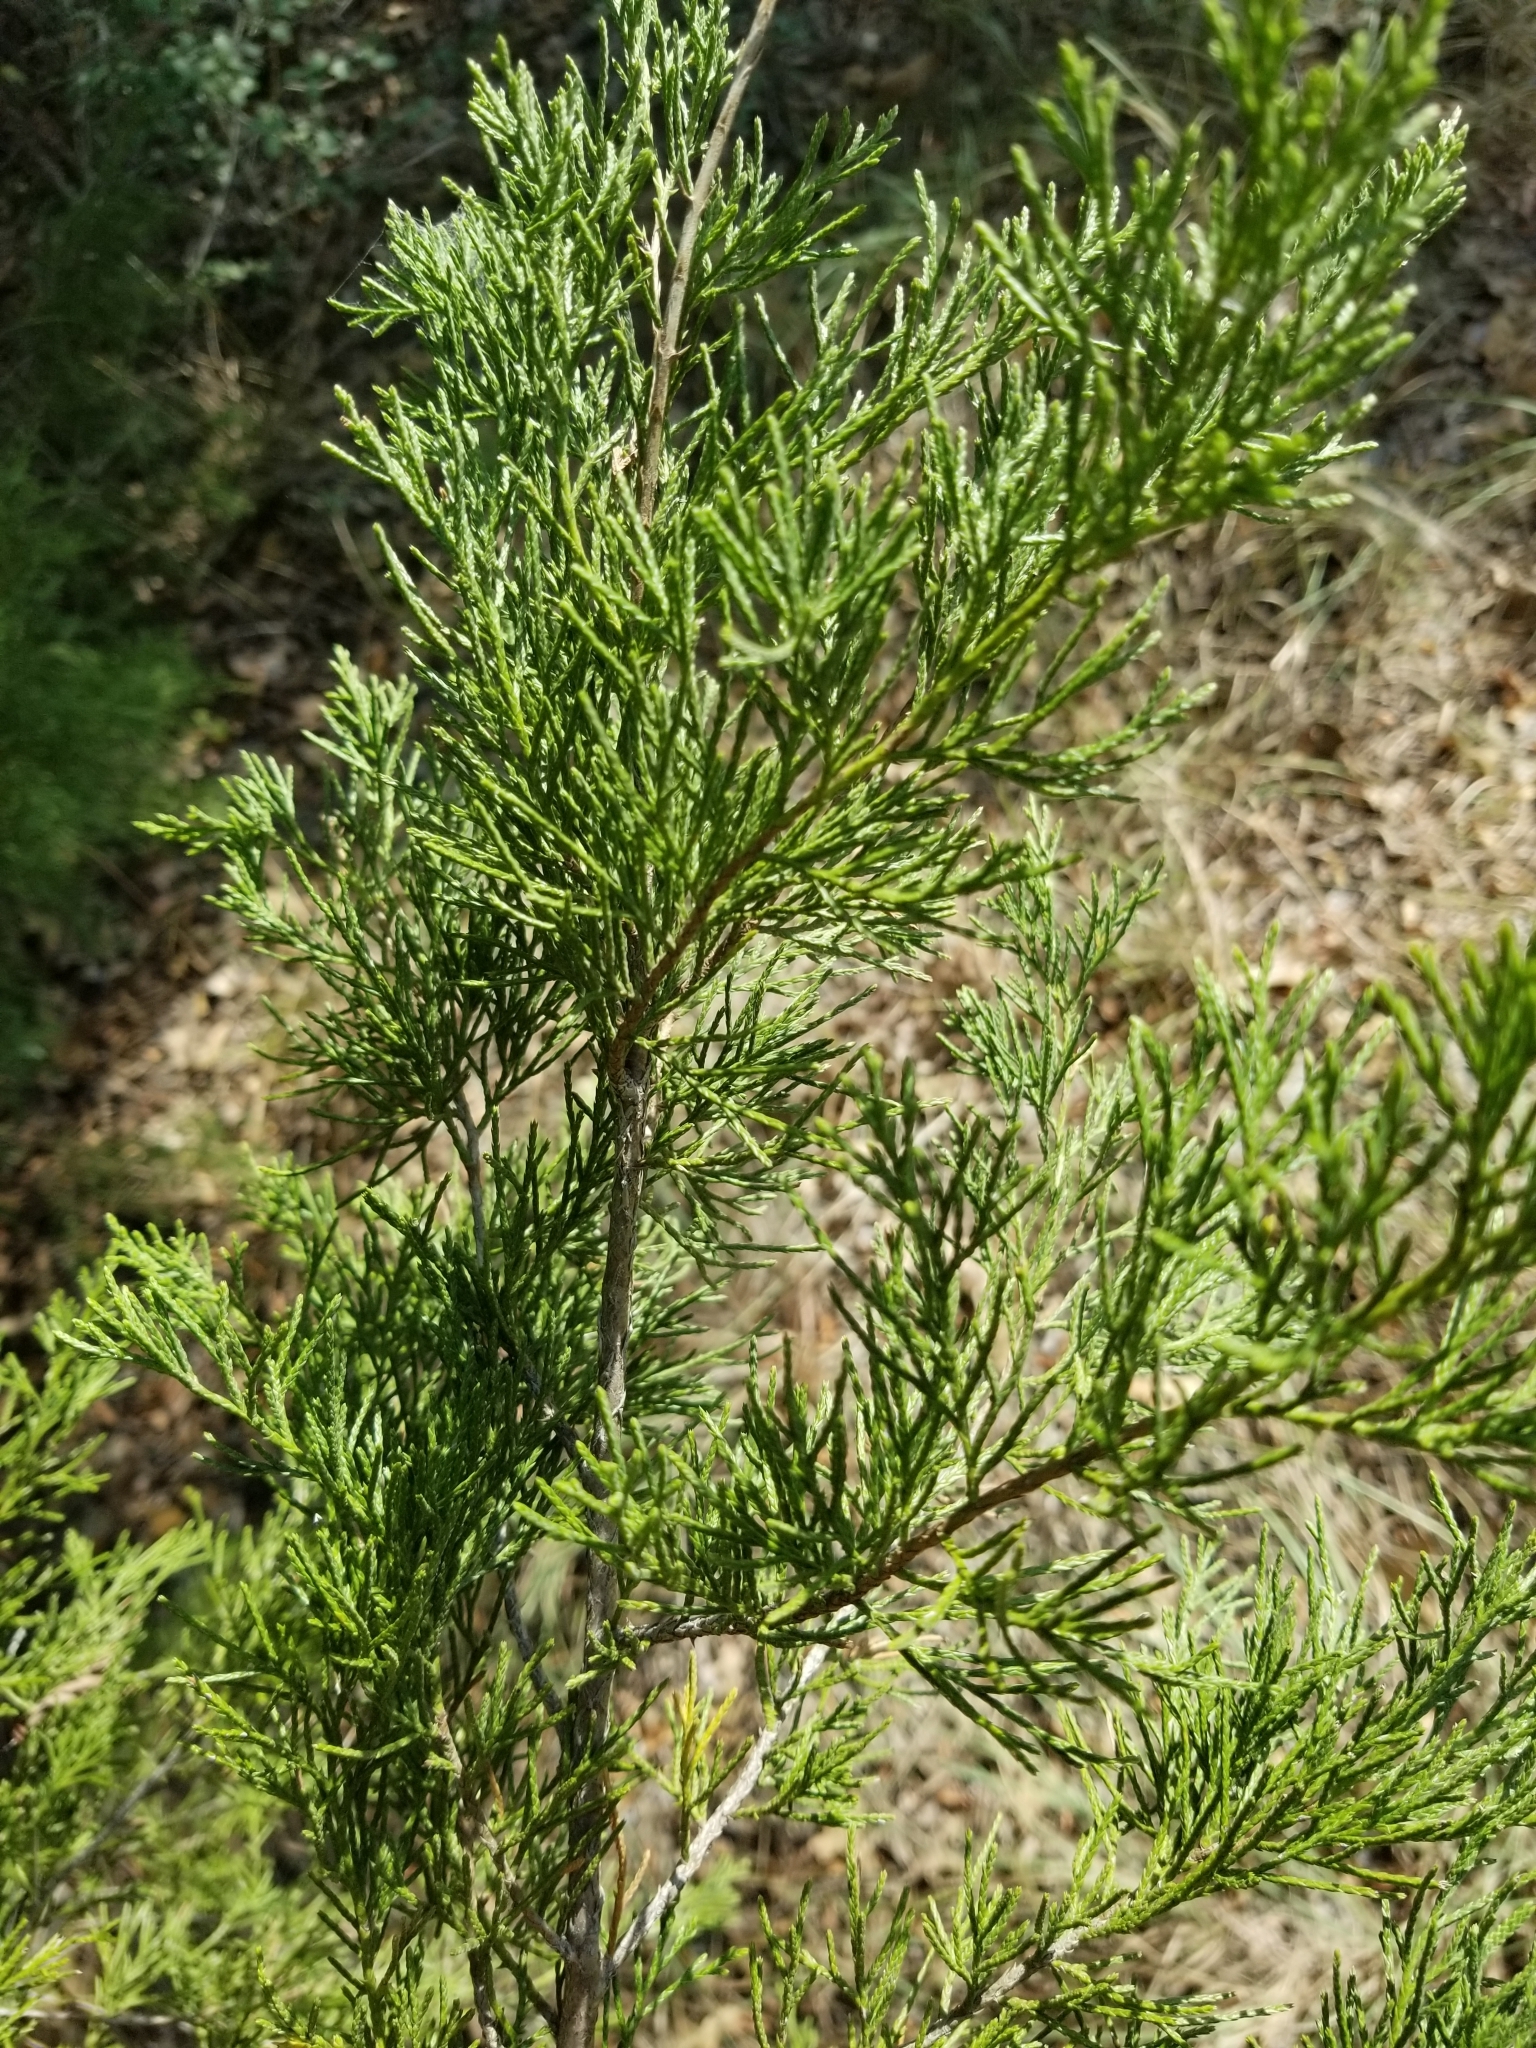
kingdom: Plantae
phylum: Tracheophyta
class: Pinopsida
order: Pinales
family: Cupressaceae
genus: Juniperus
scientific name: Juniperus virginiana
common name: Red juniper
